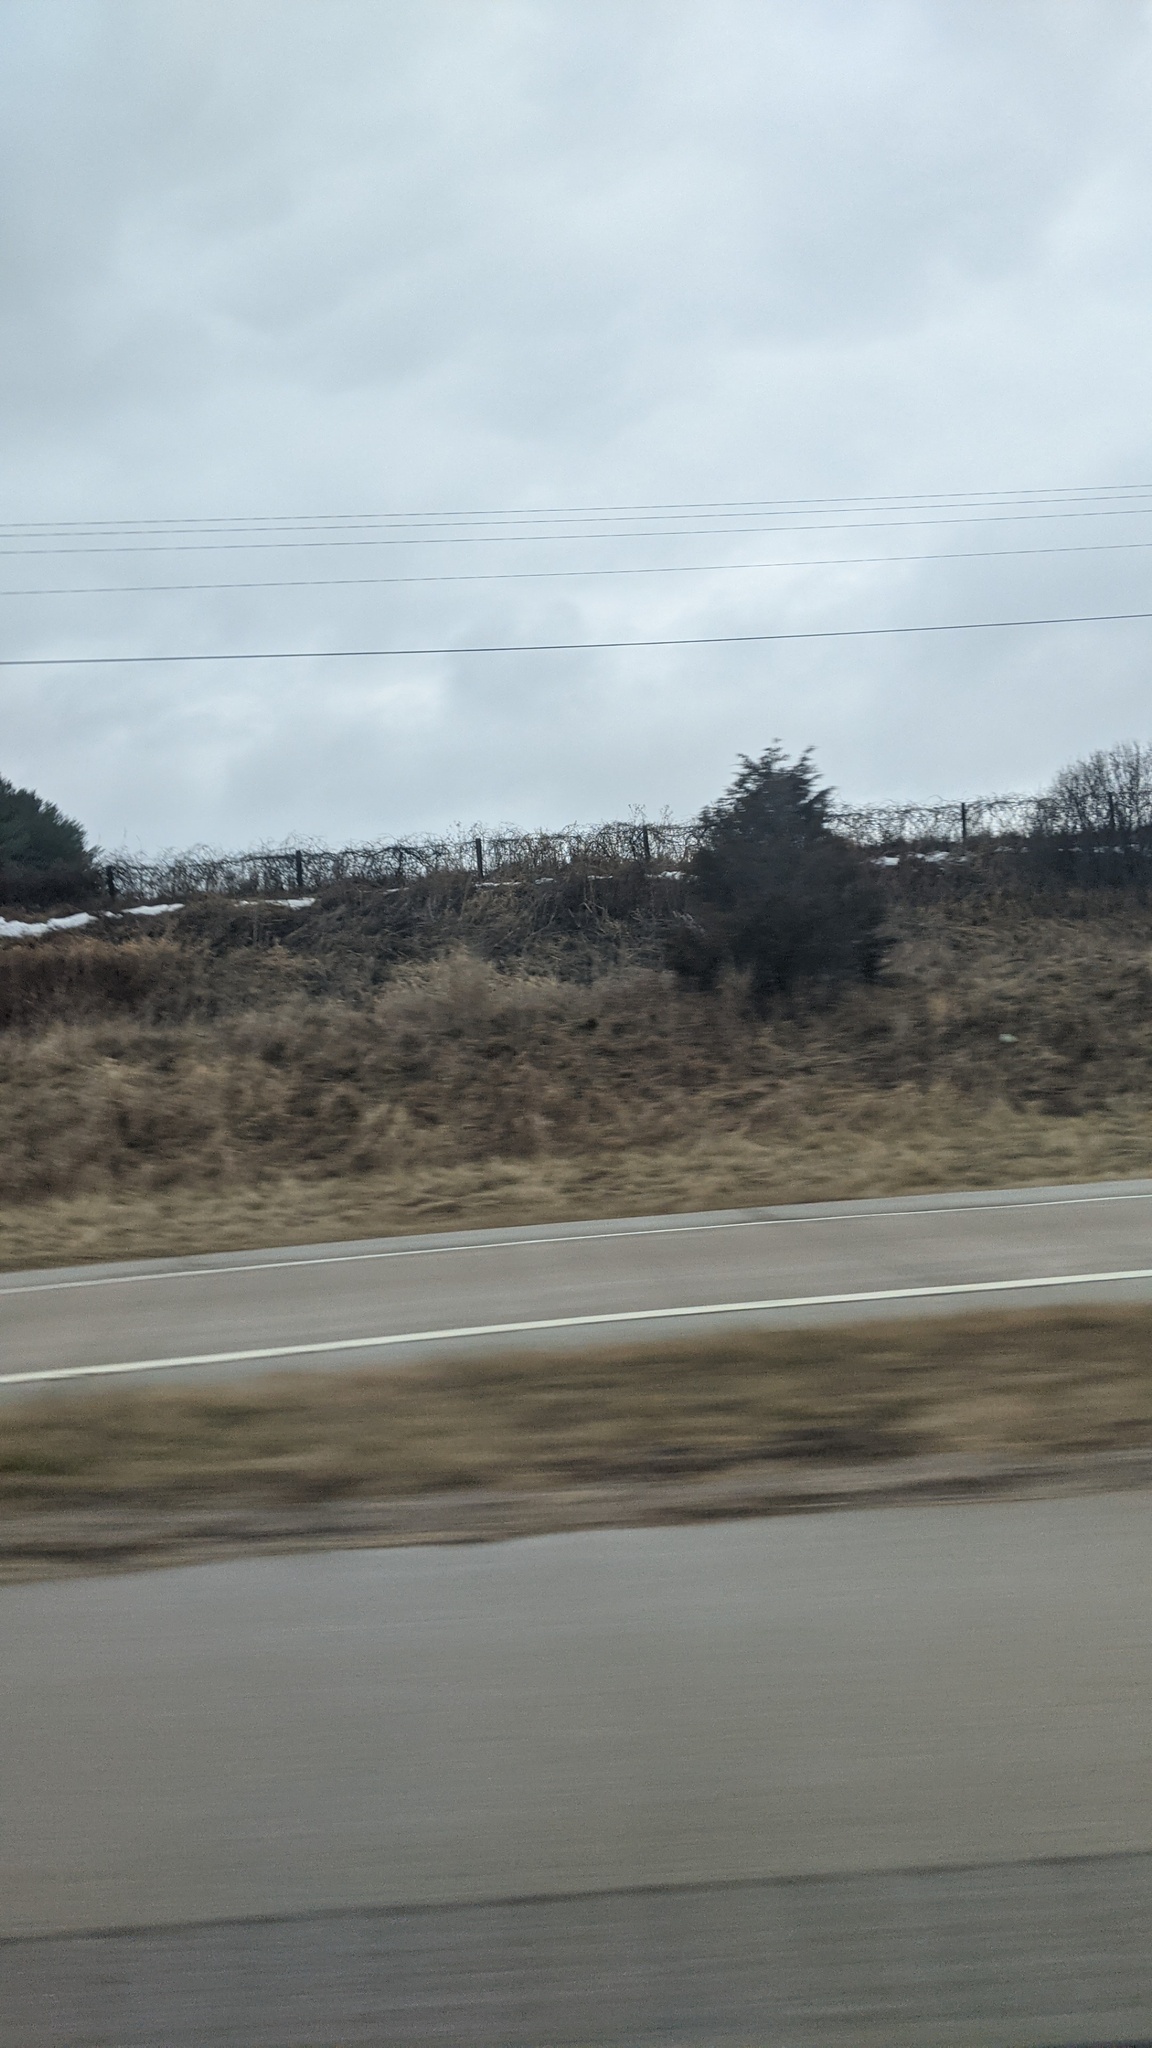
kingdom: Plantae
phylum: Tracheophyta
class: Pinopsida
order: Pinales
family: Cupressaceae
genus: Juniperus
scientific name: Juniperus virginiana
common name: Red juniper
